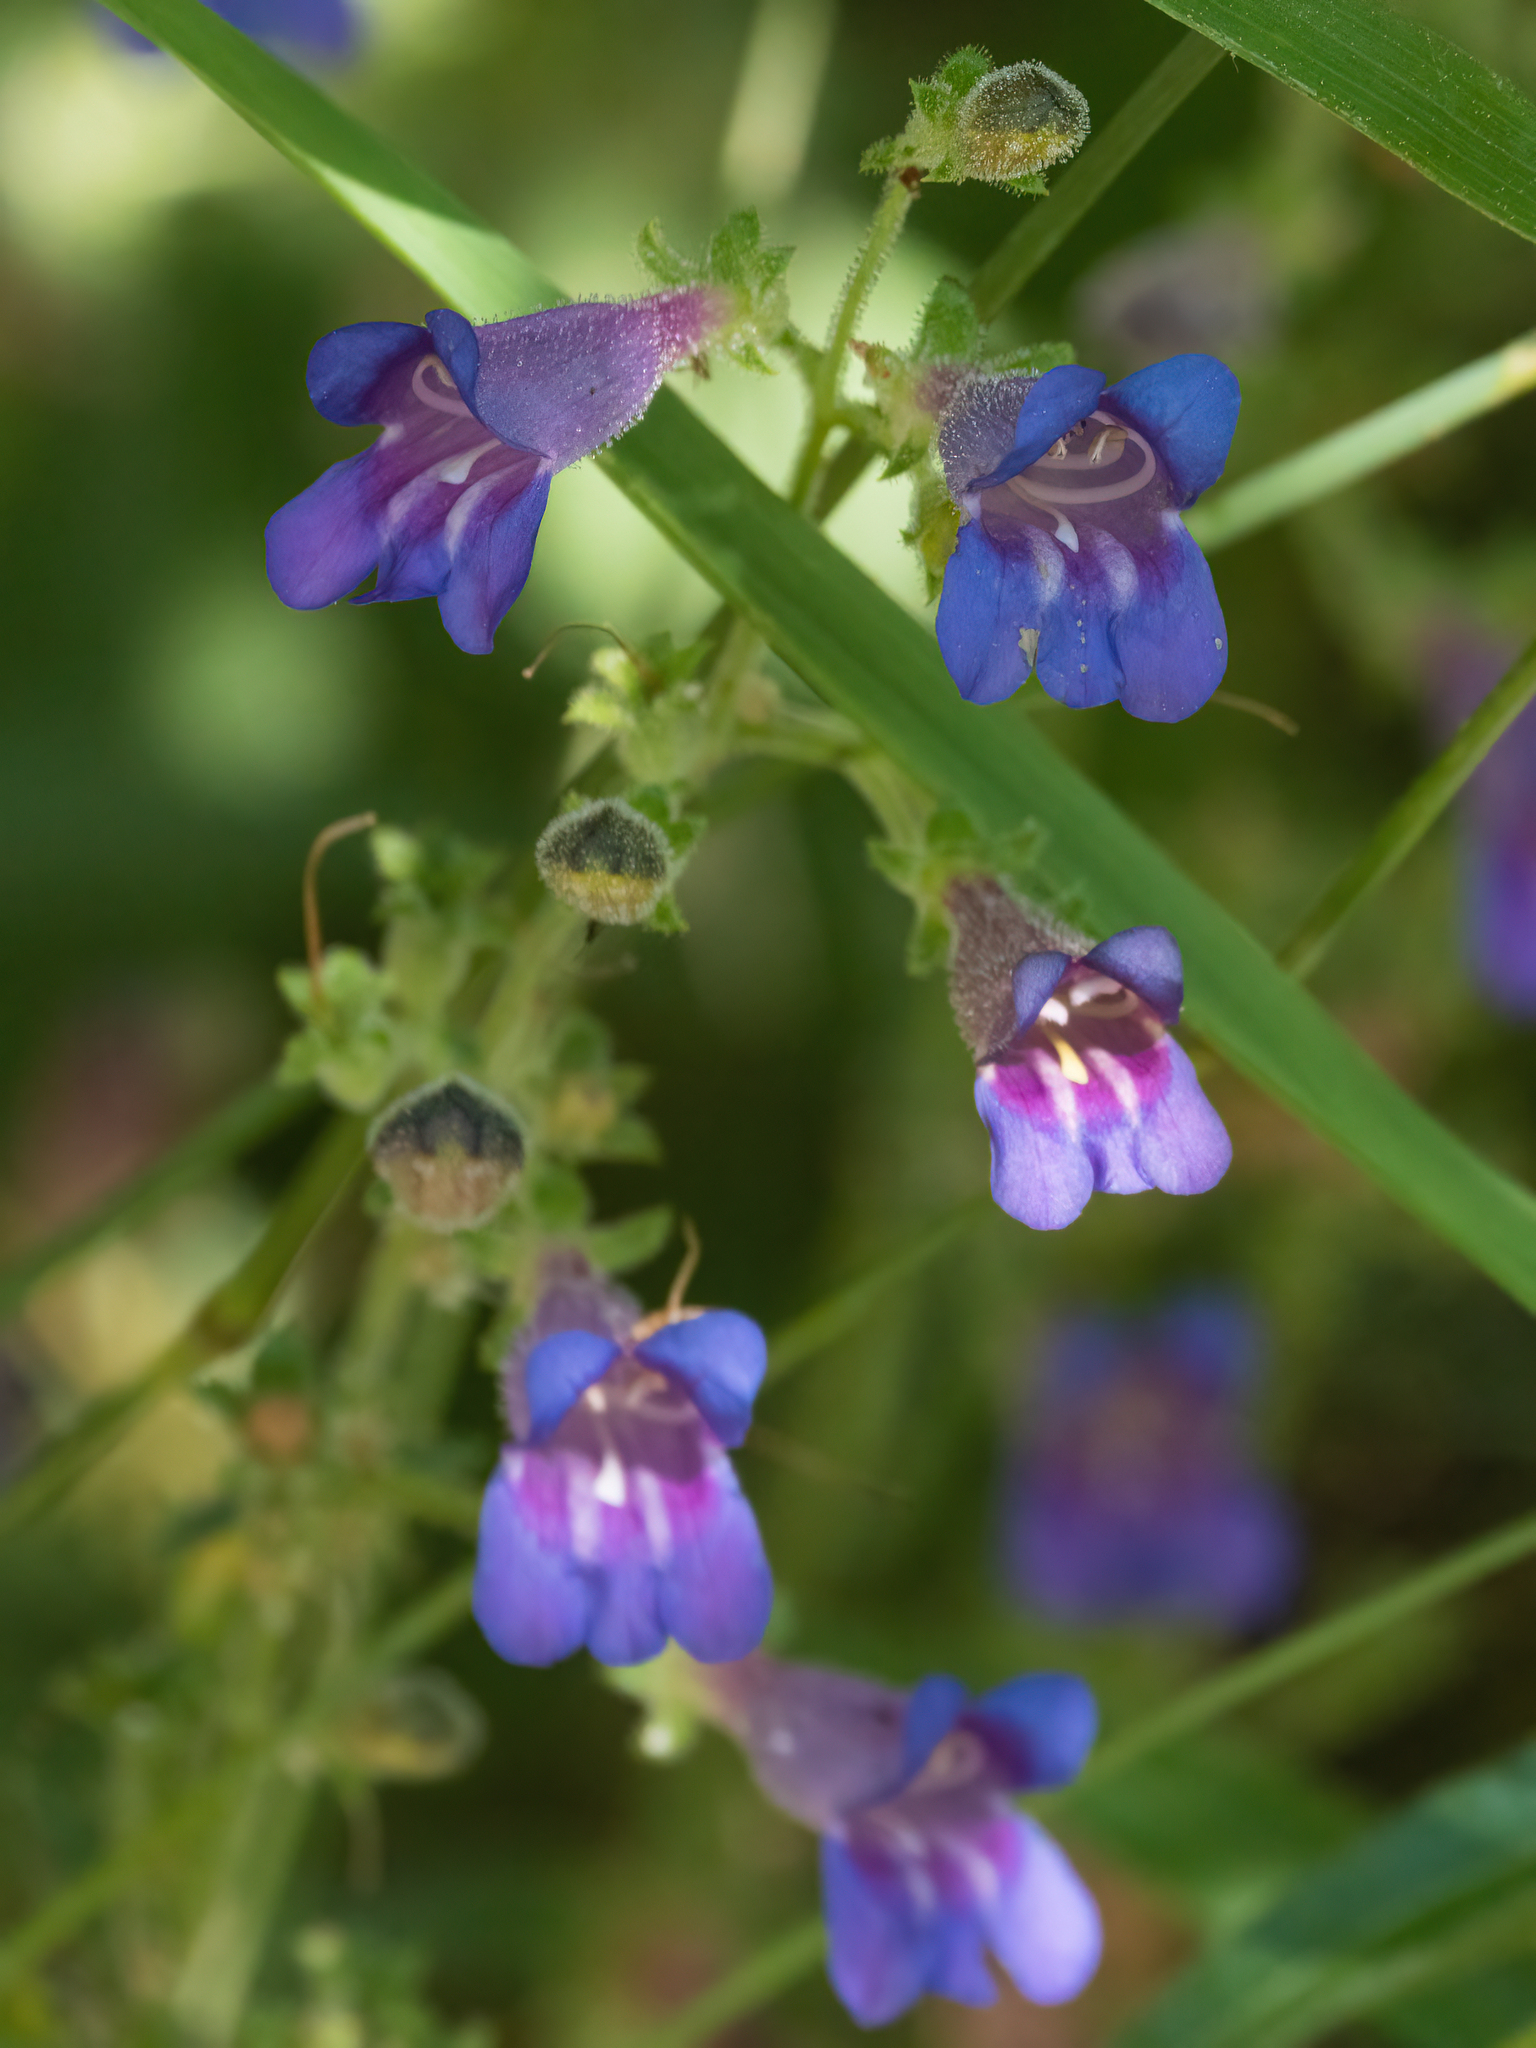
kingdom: Plantae
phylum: Tracheophyta
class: Magnoliopsida
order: Lamiales
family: Plantaginaceae
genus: Penstemon
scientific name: Penstemon laetus
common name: Gay penstemon
